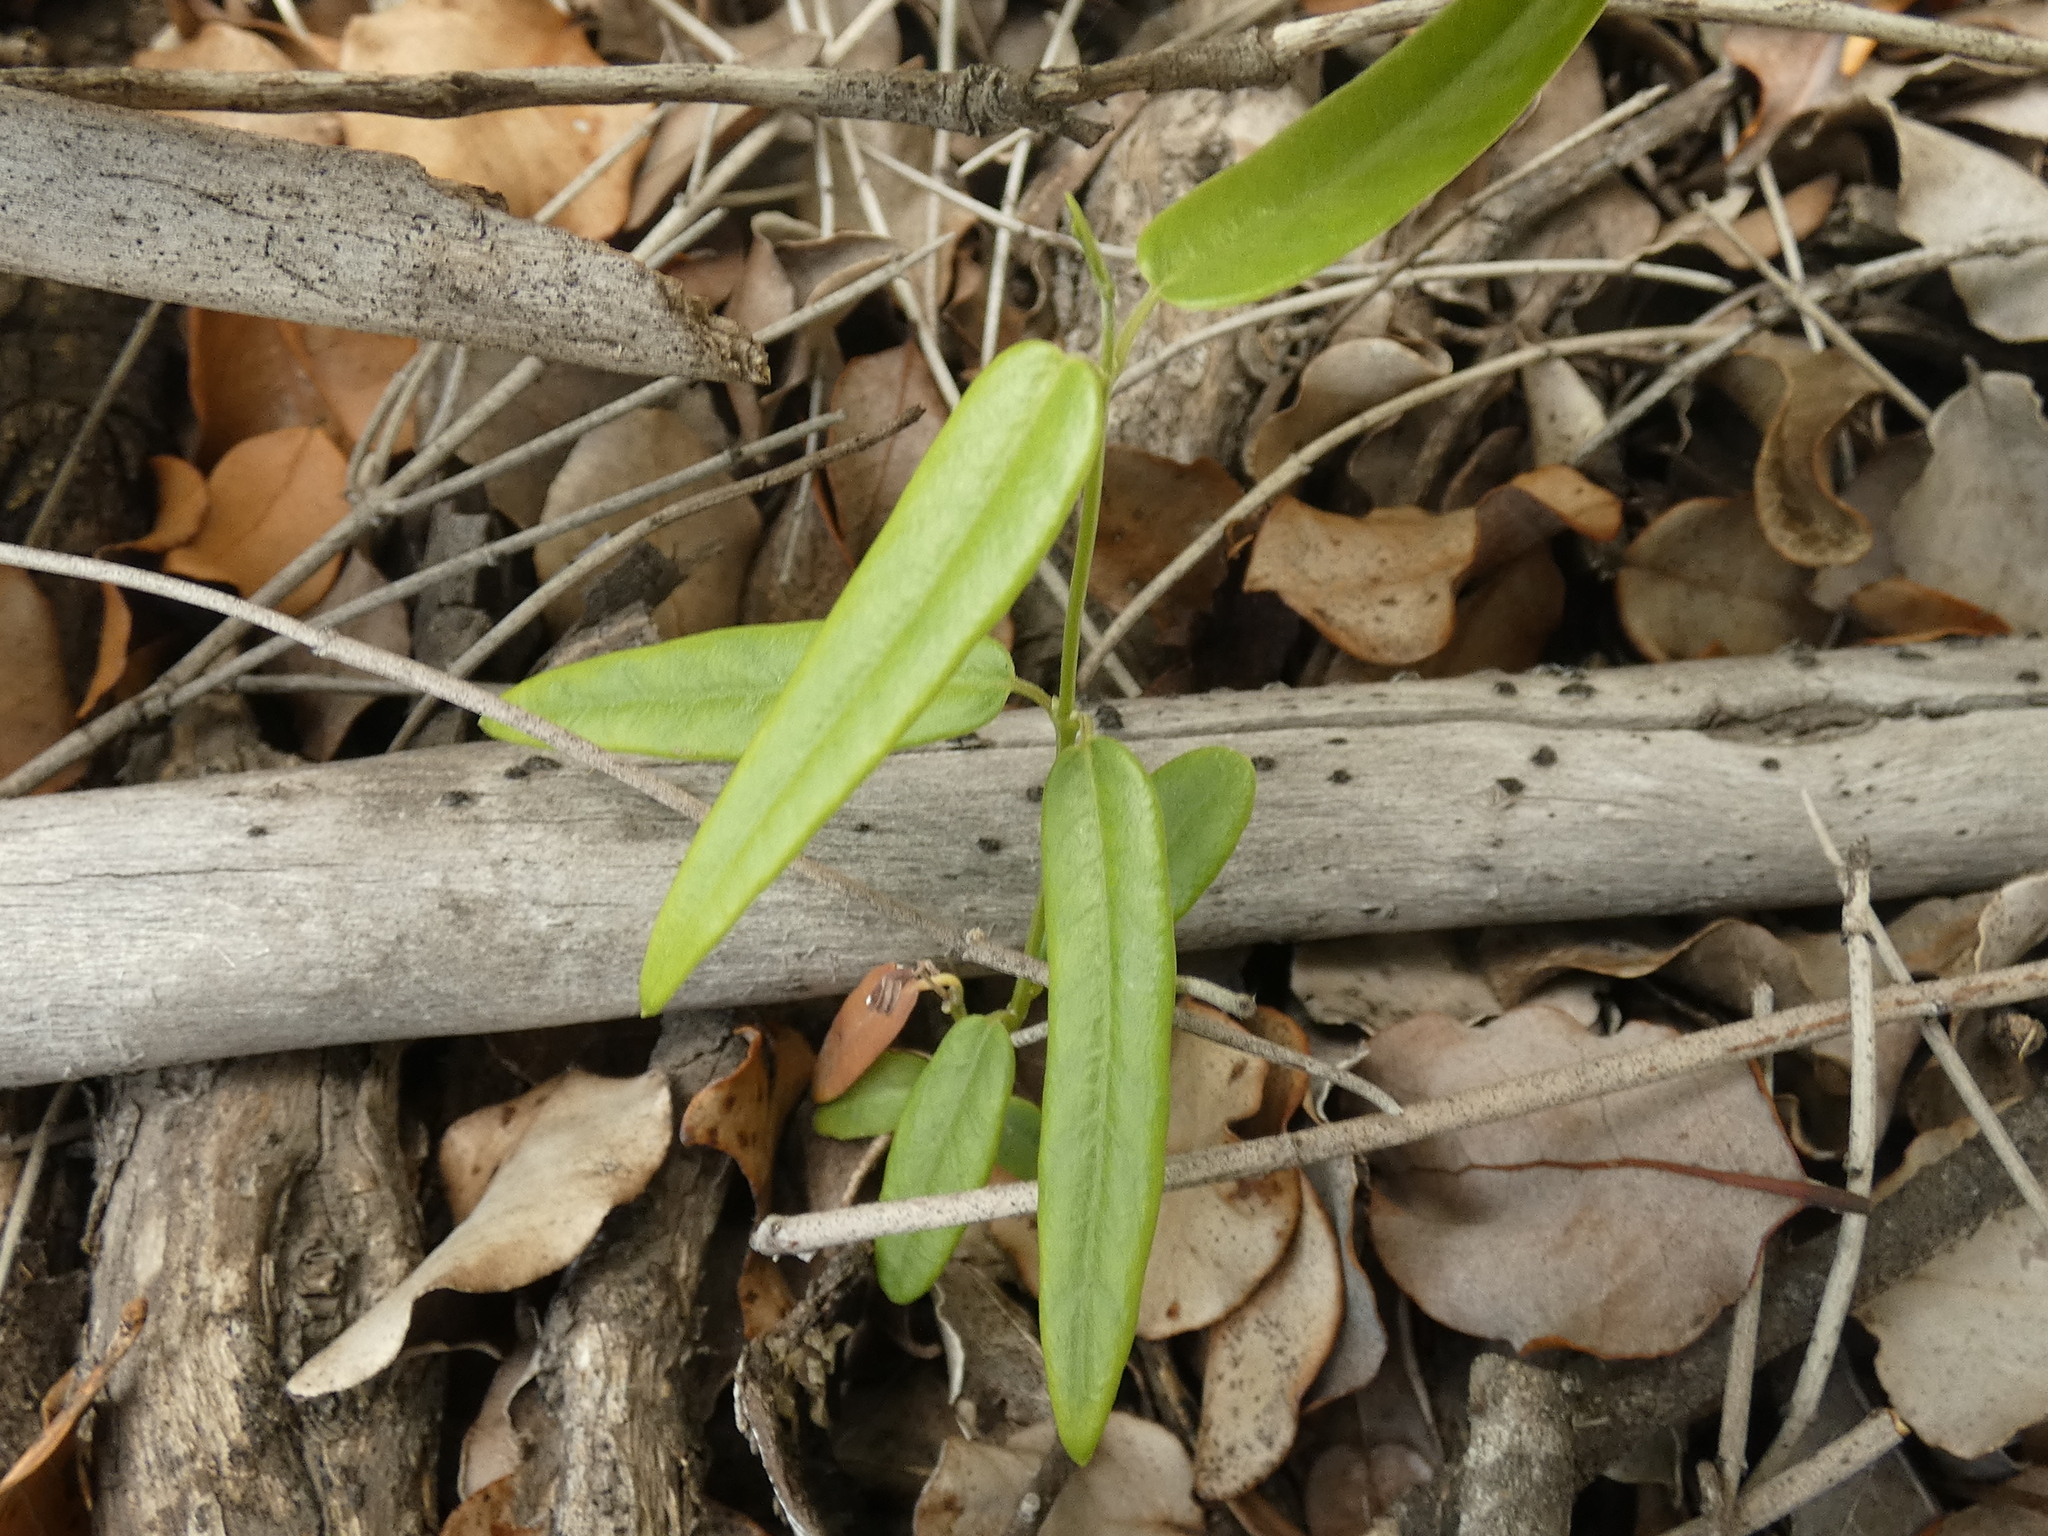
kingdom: Plantae
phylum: Tracheophyta
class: Magnoliopsida
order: Gentianales
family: Apocynaceae
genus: Diplolepis
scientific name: Diplolepis pachyphylla
